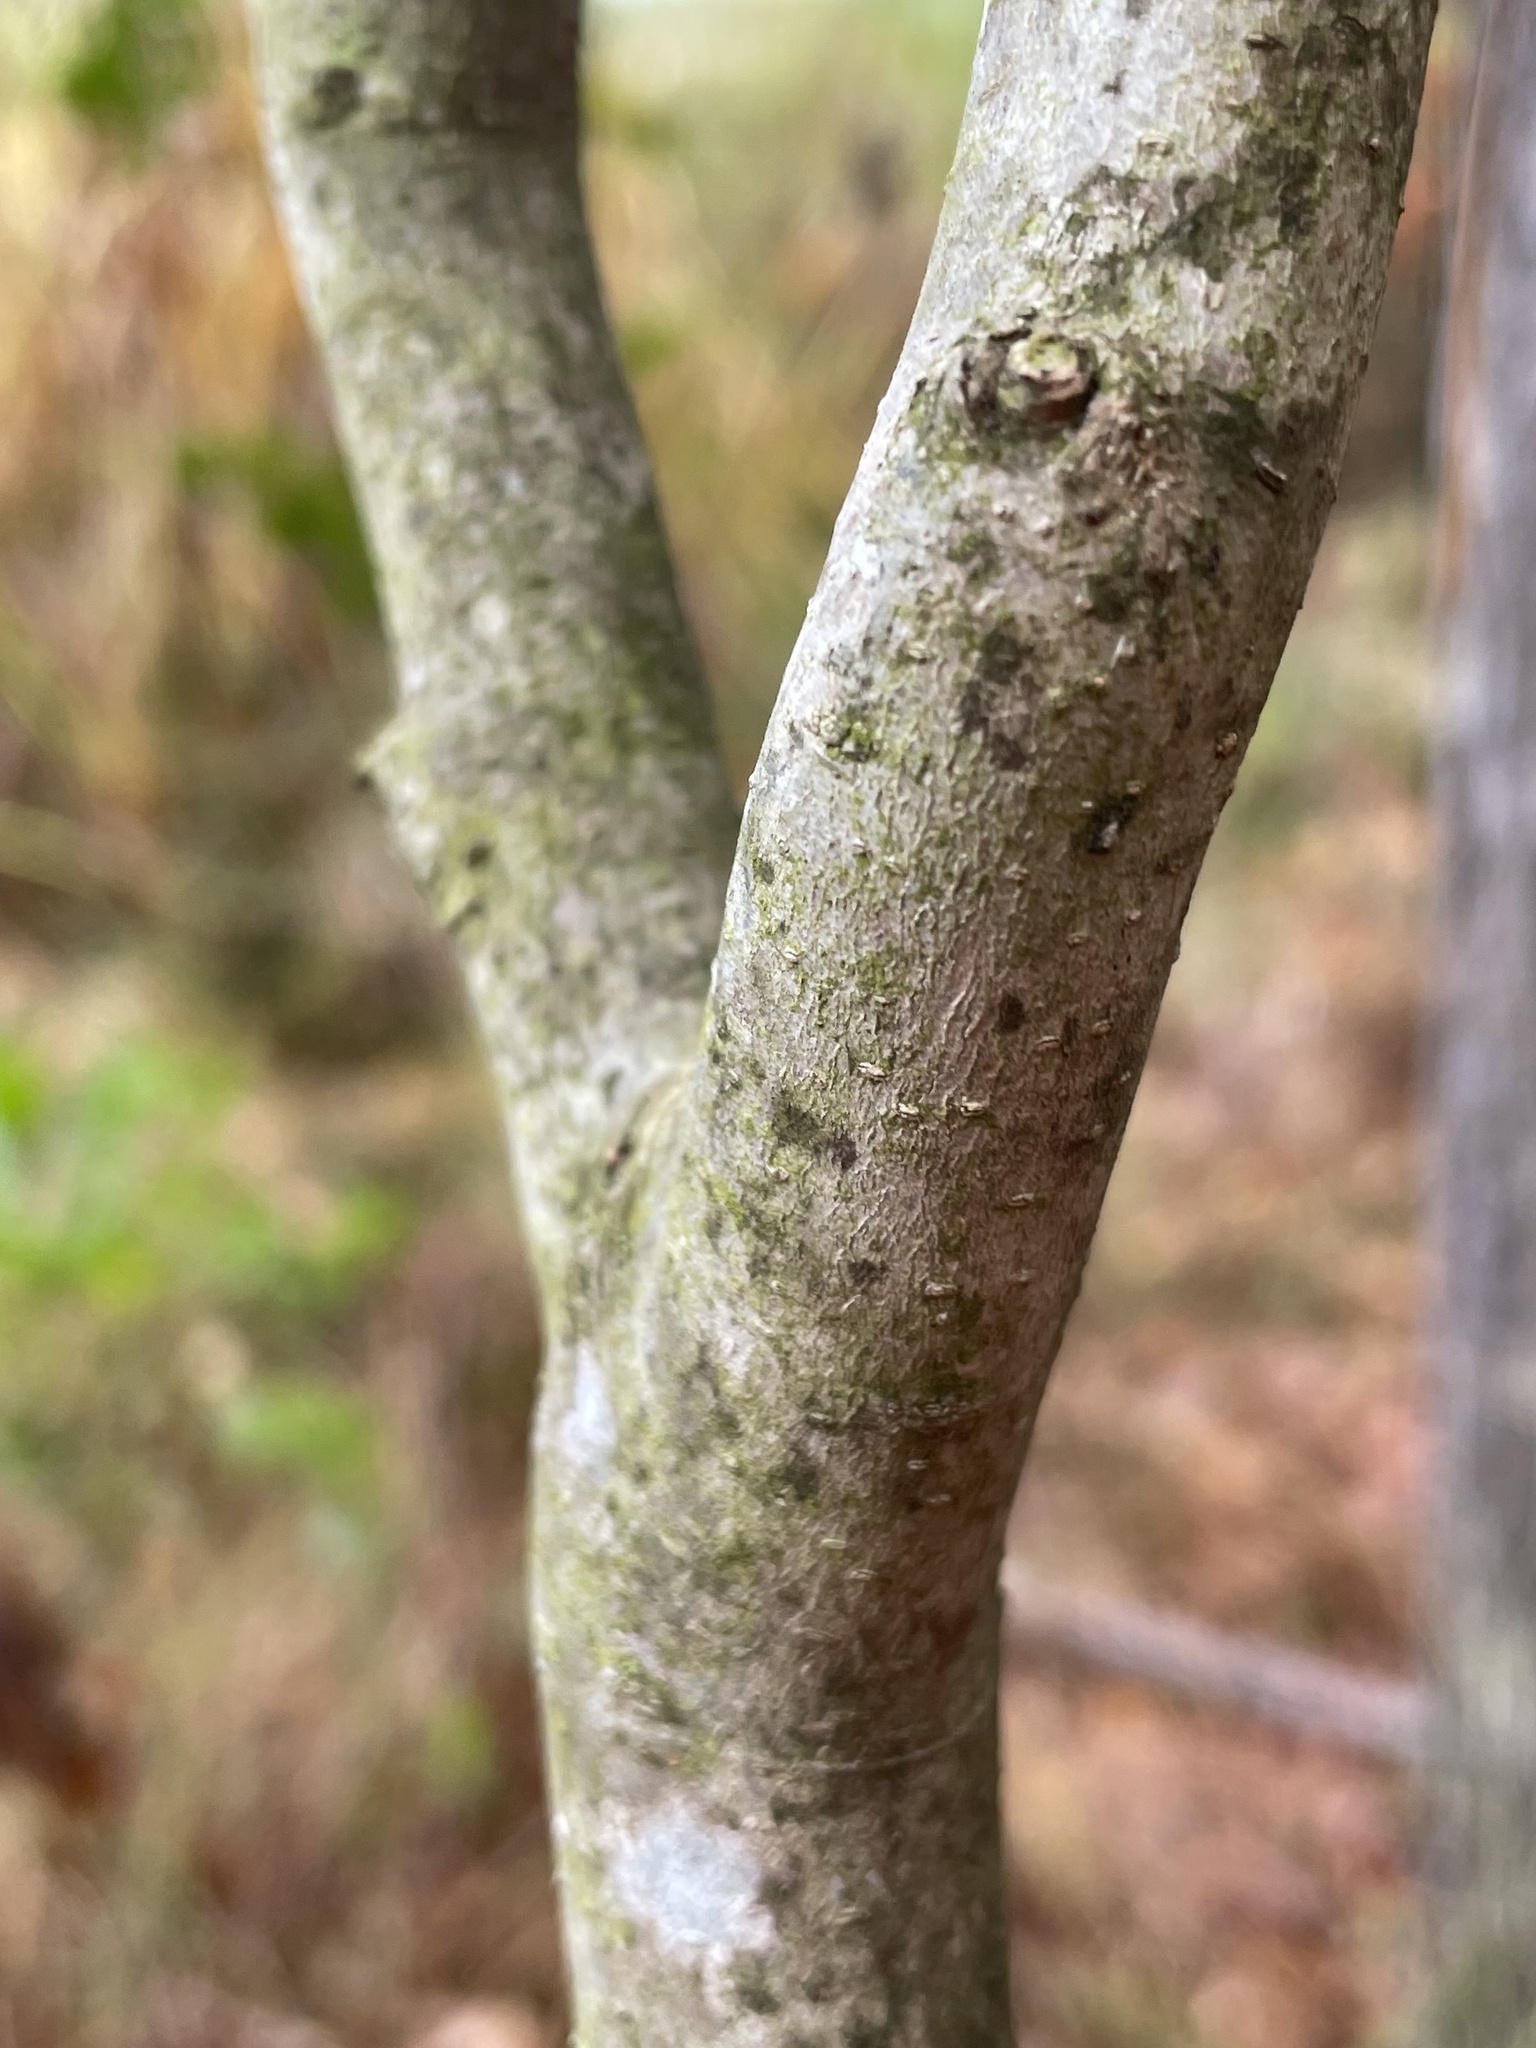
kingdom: Plantae
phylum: Tracheophyta
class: Magnoliopsida
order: Lamiales
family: Oleaceae
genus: Ligustrum
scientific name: Ligustrum sinense
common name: Chinese privet
